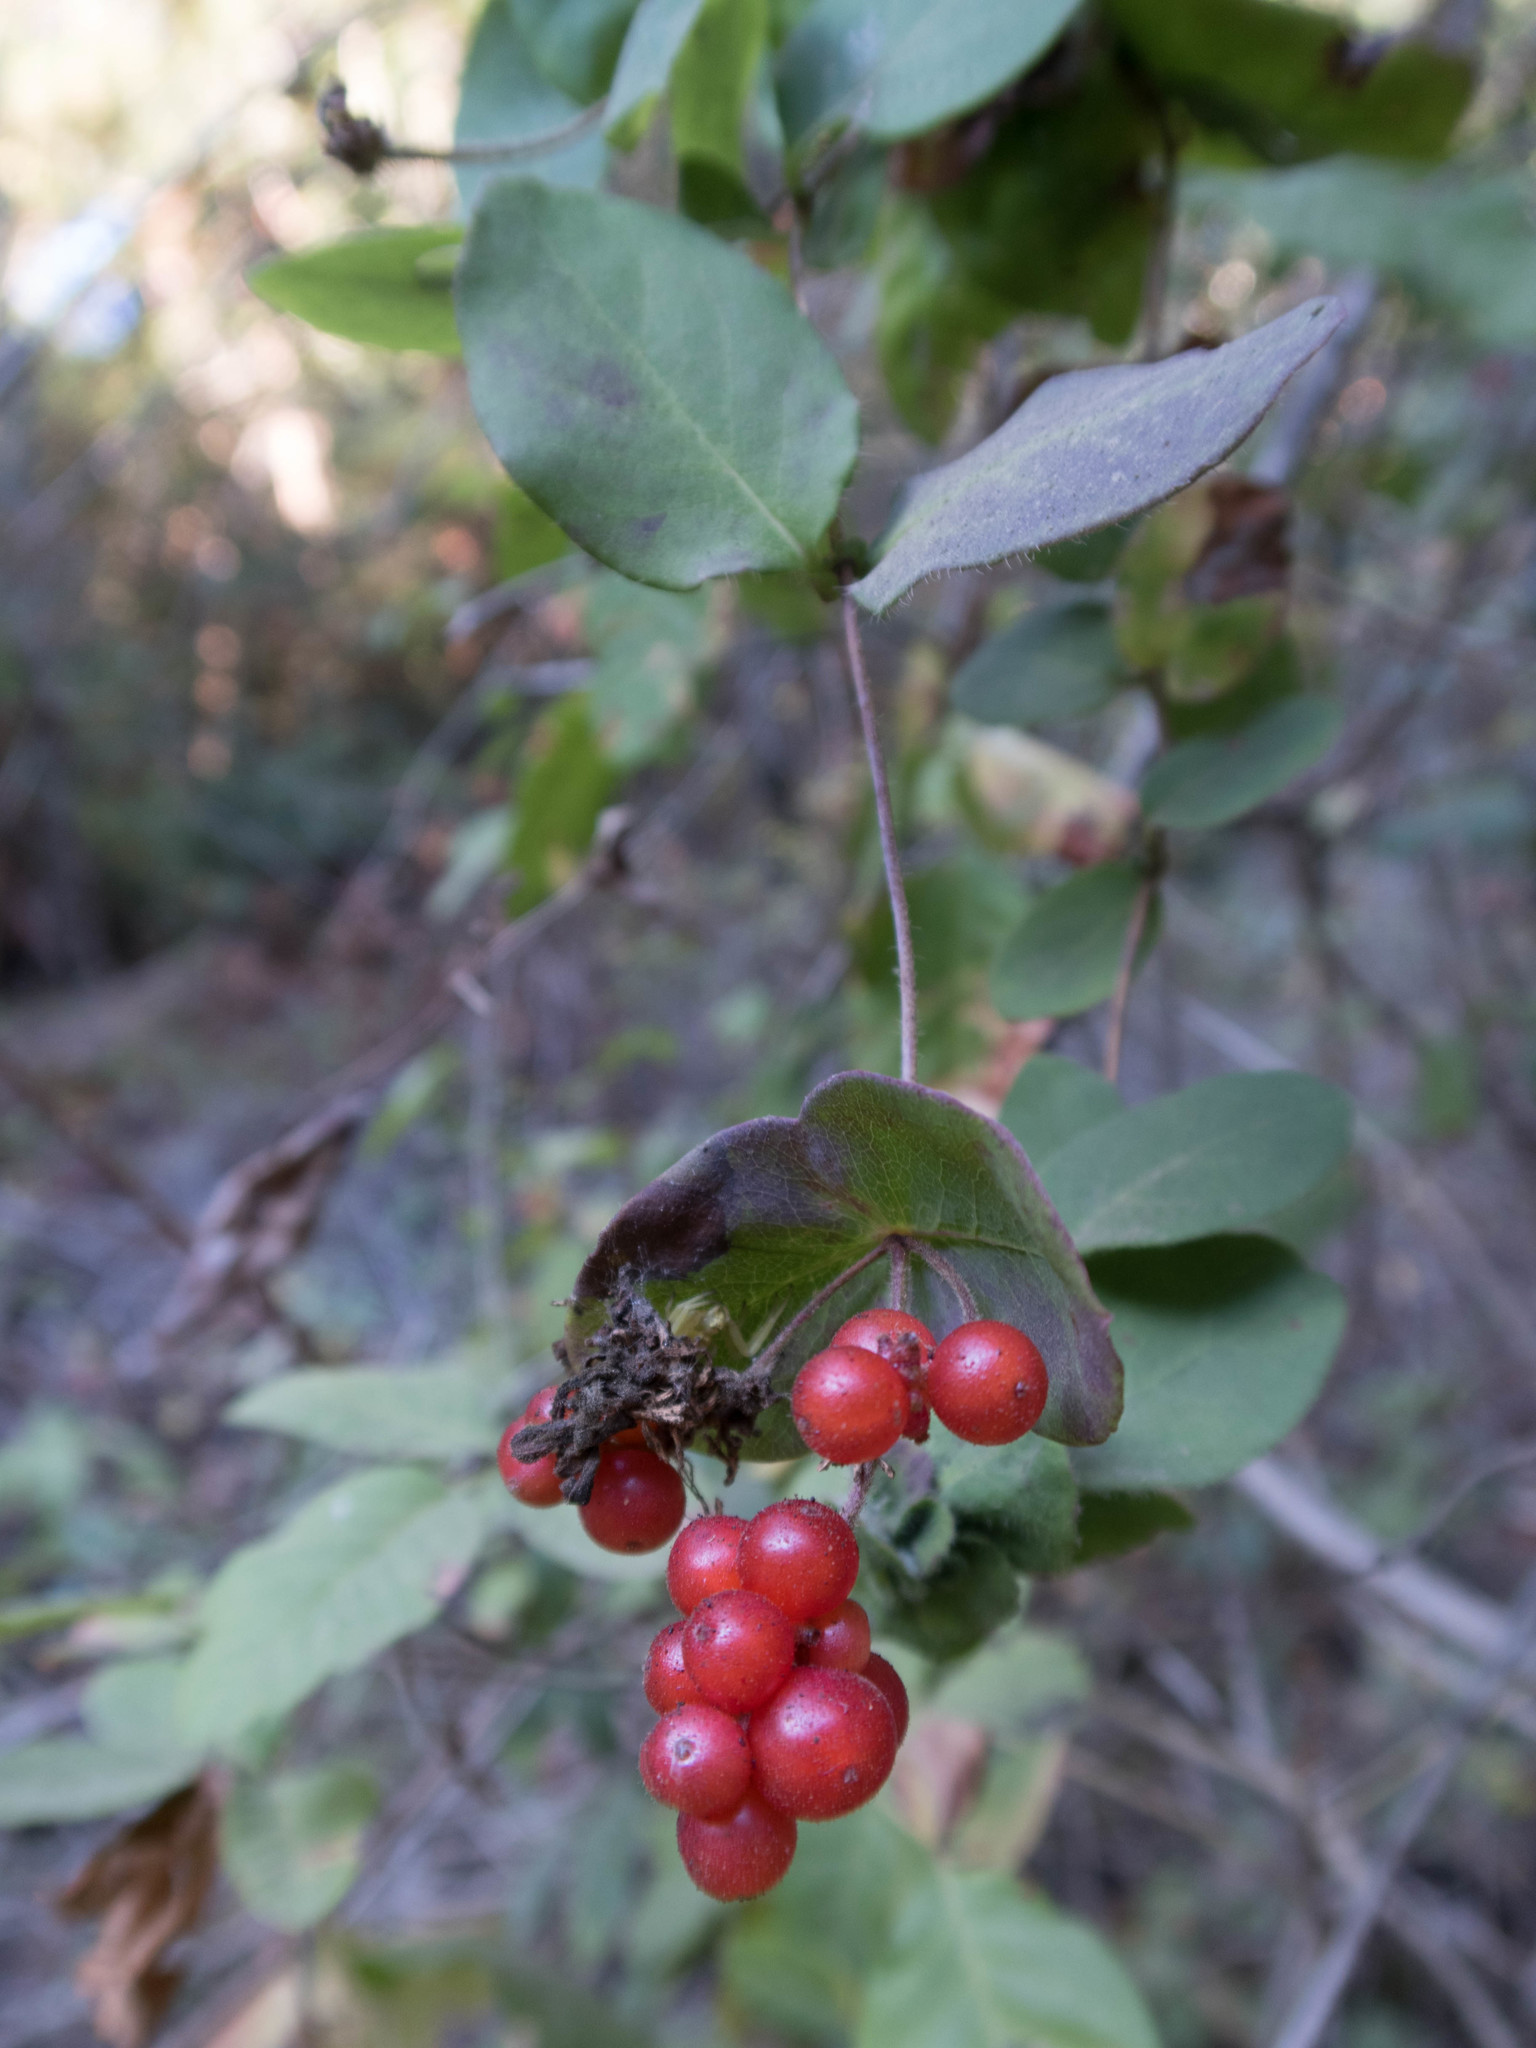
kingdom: Plantae
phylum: Tracheophyta
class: Magnoliopsida
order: Dipsacales
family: Caprifoliaceae
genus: Lonicera
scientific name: Lonicera hispidula
